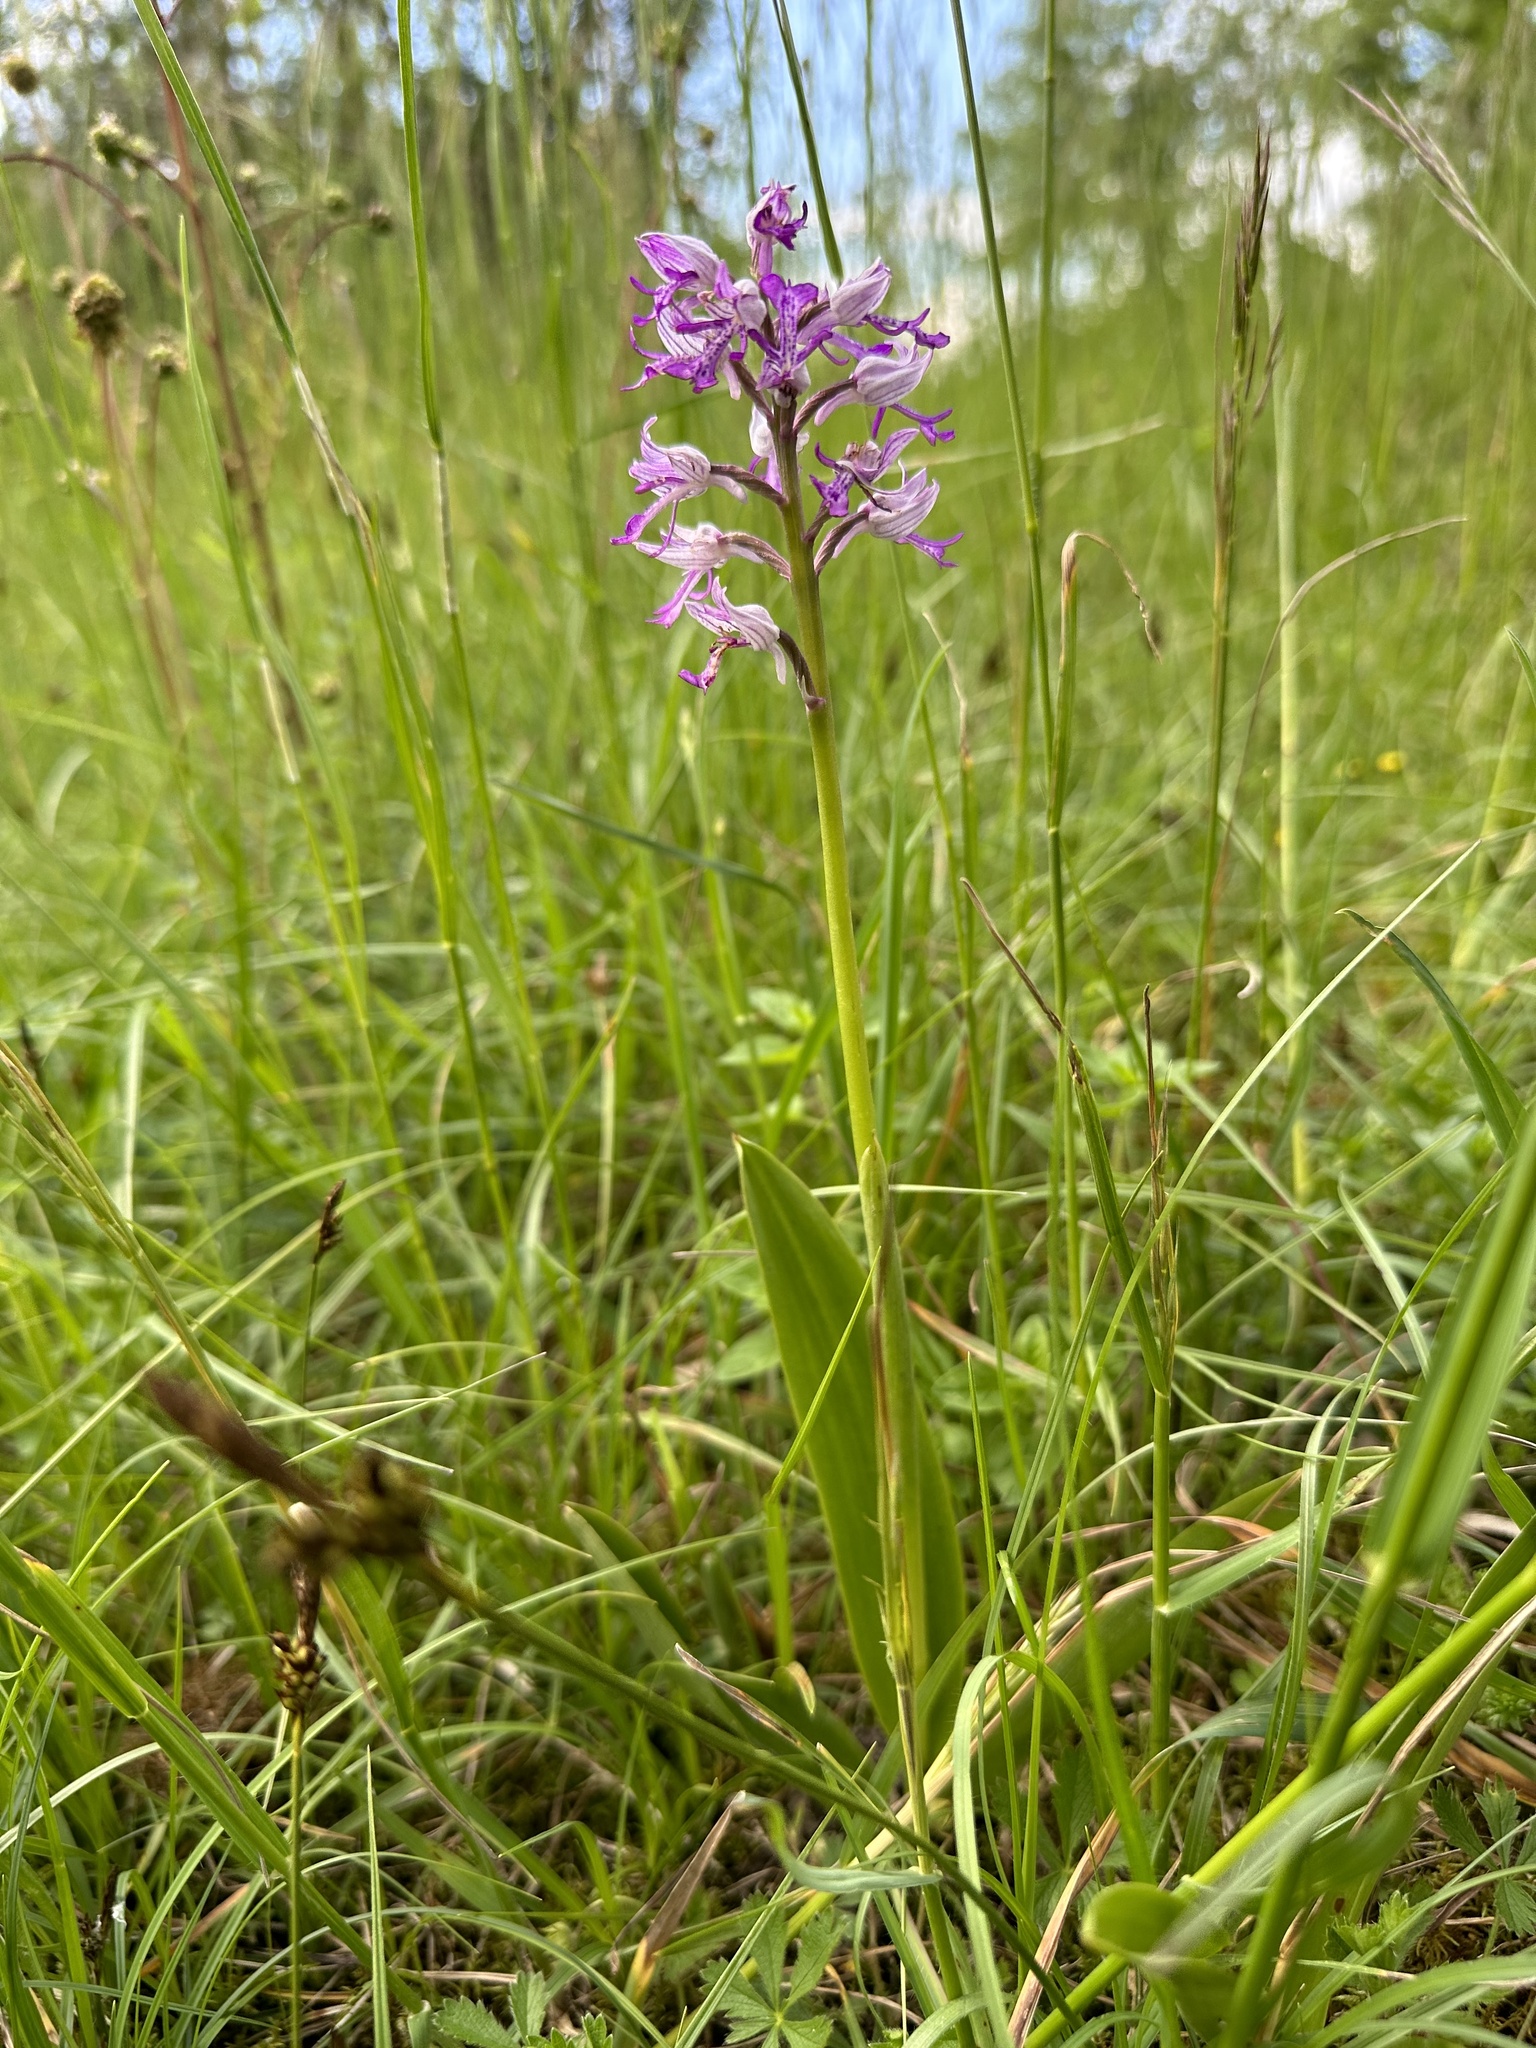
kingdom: Plantae
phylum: Tracheophyta
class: Liliopsida
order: Asparagales
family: Orchidaceae
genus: Orchis
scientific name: Orchis militaris
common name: Military orchid
